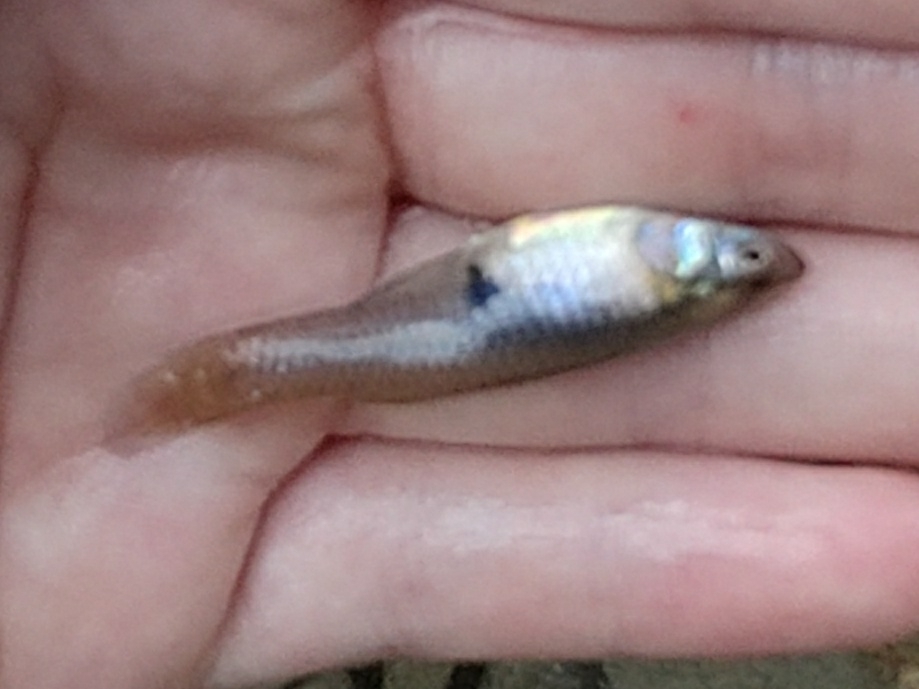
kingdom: Animalia
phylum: Chordata
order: Cyprinodontiformes
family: Poeciliidae
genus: Gambusia
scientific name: Gambusia affinis
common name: Mosquitofish
